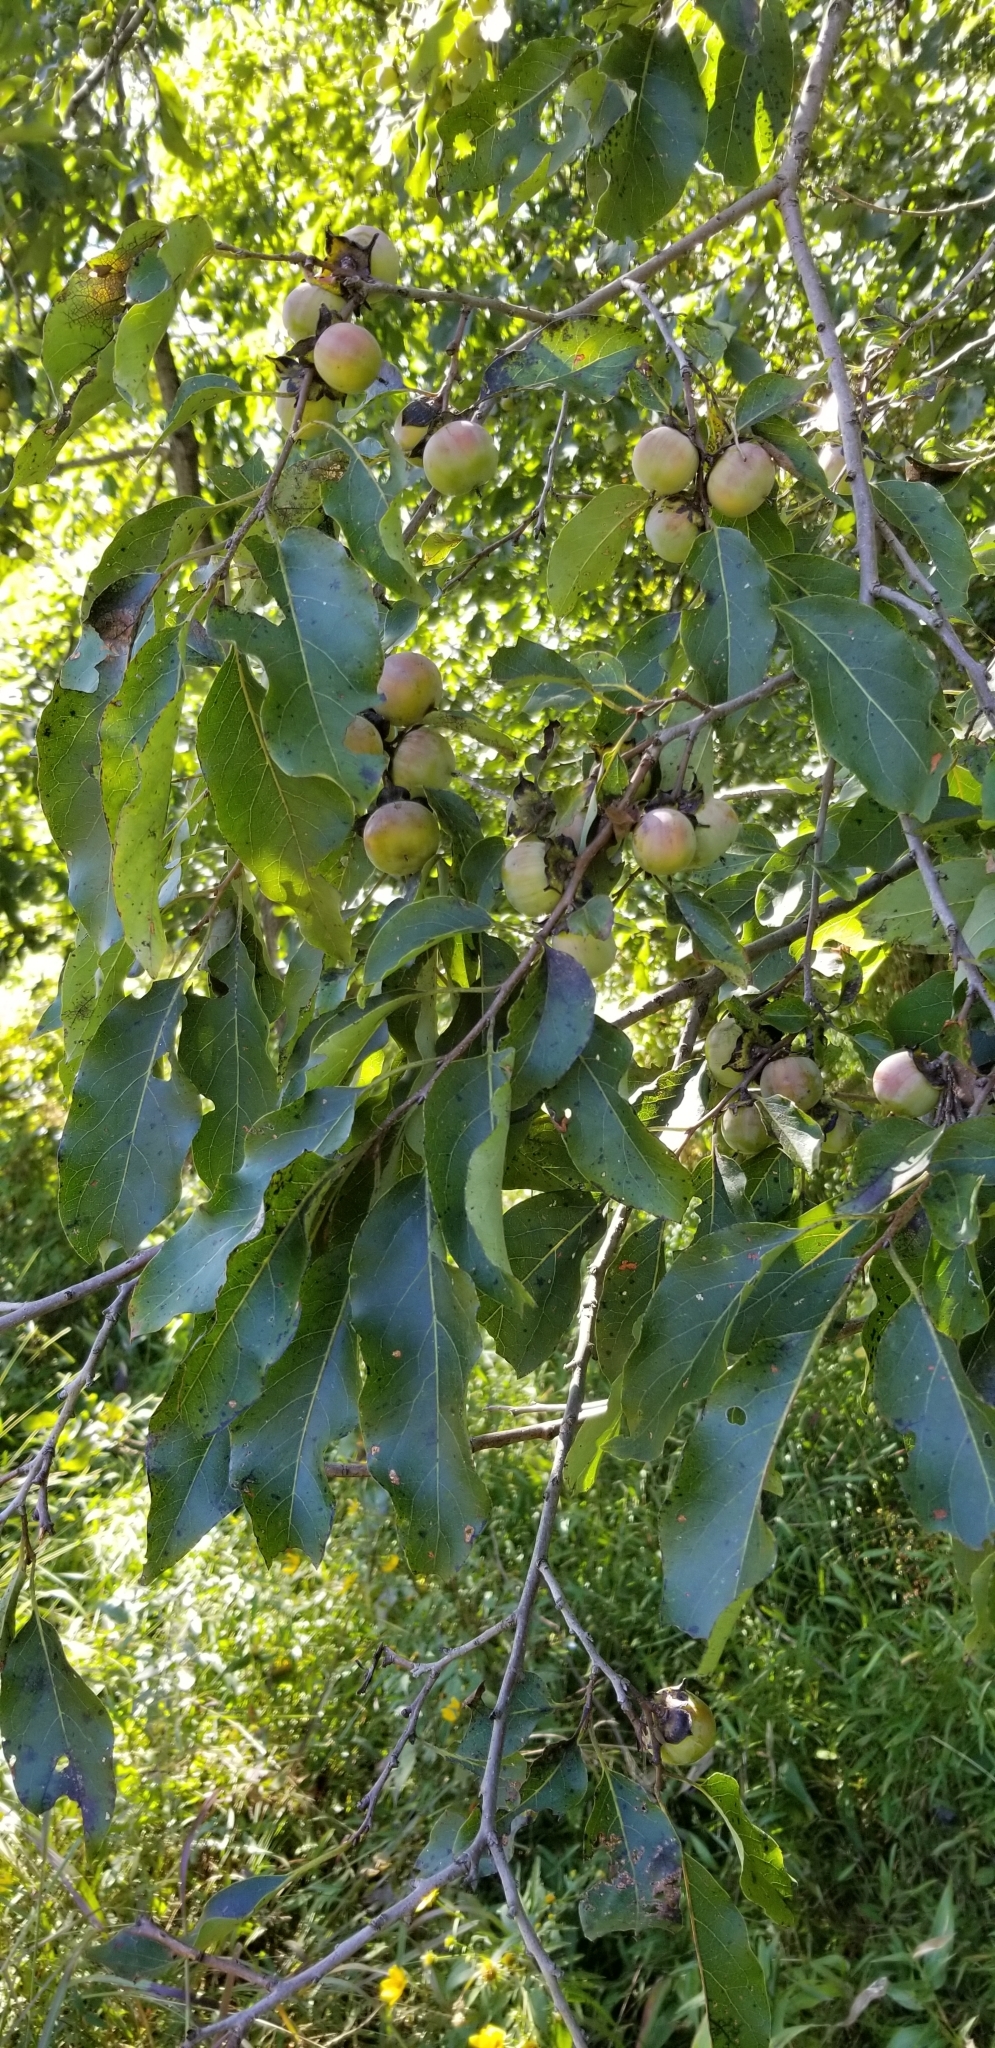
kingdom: Plantae
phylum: Tracheophyta
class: Magnoliopsida
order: Ericales
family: Ebenaceae
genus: Diospyros
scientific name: Diospyros virginiana
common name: Persimmon
